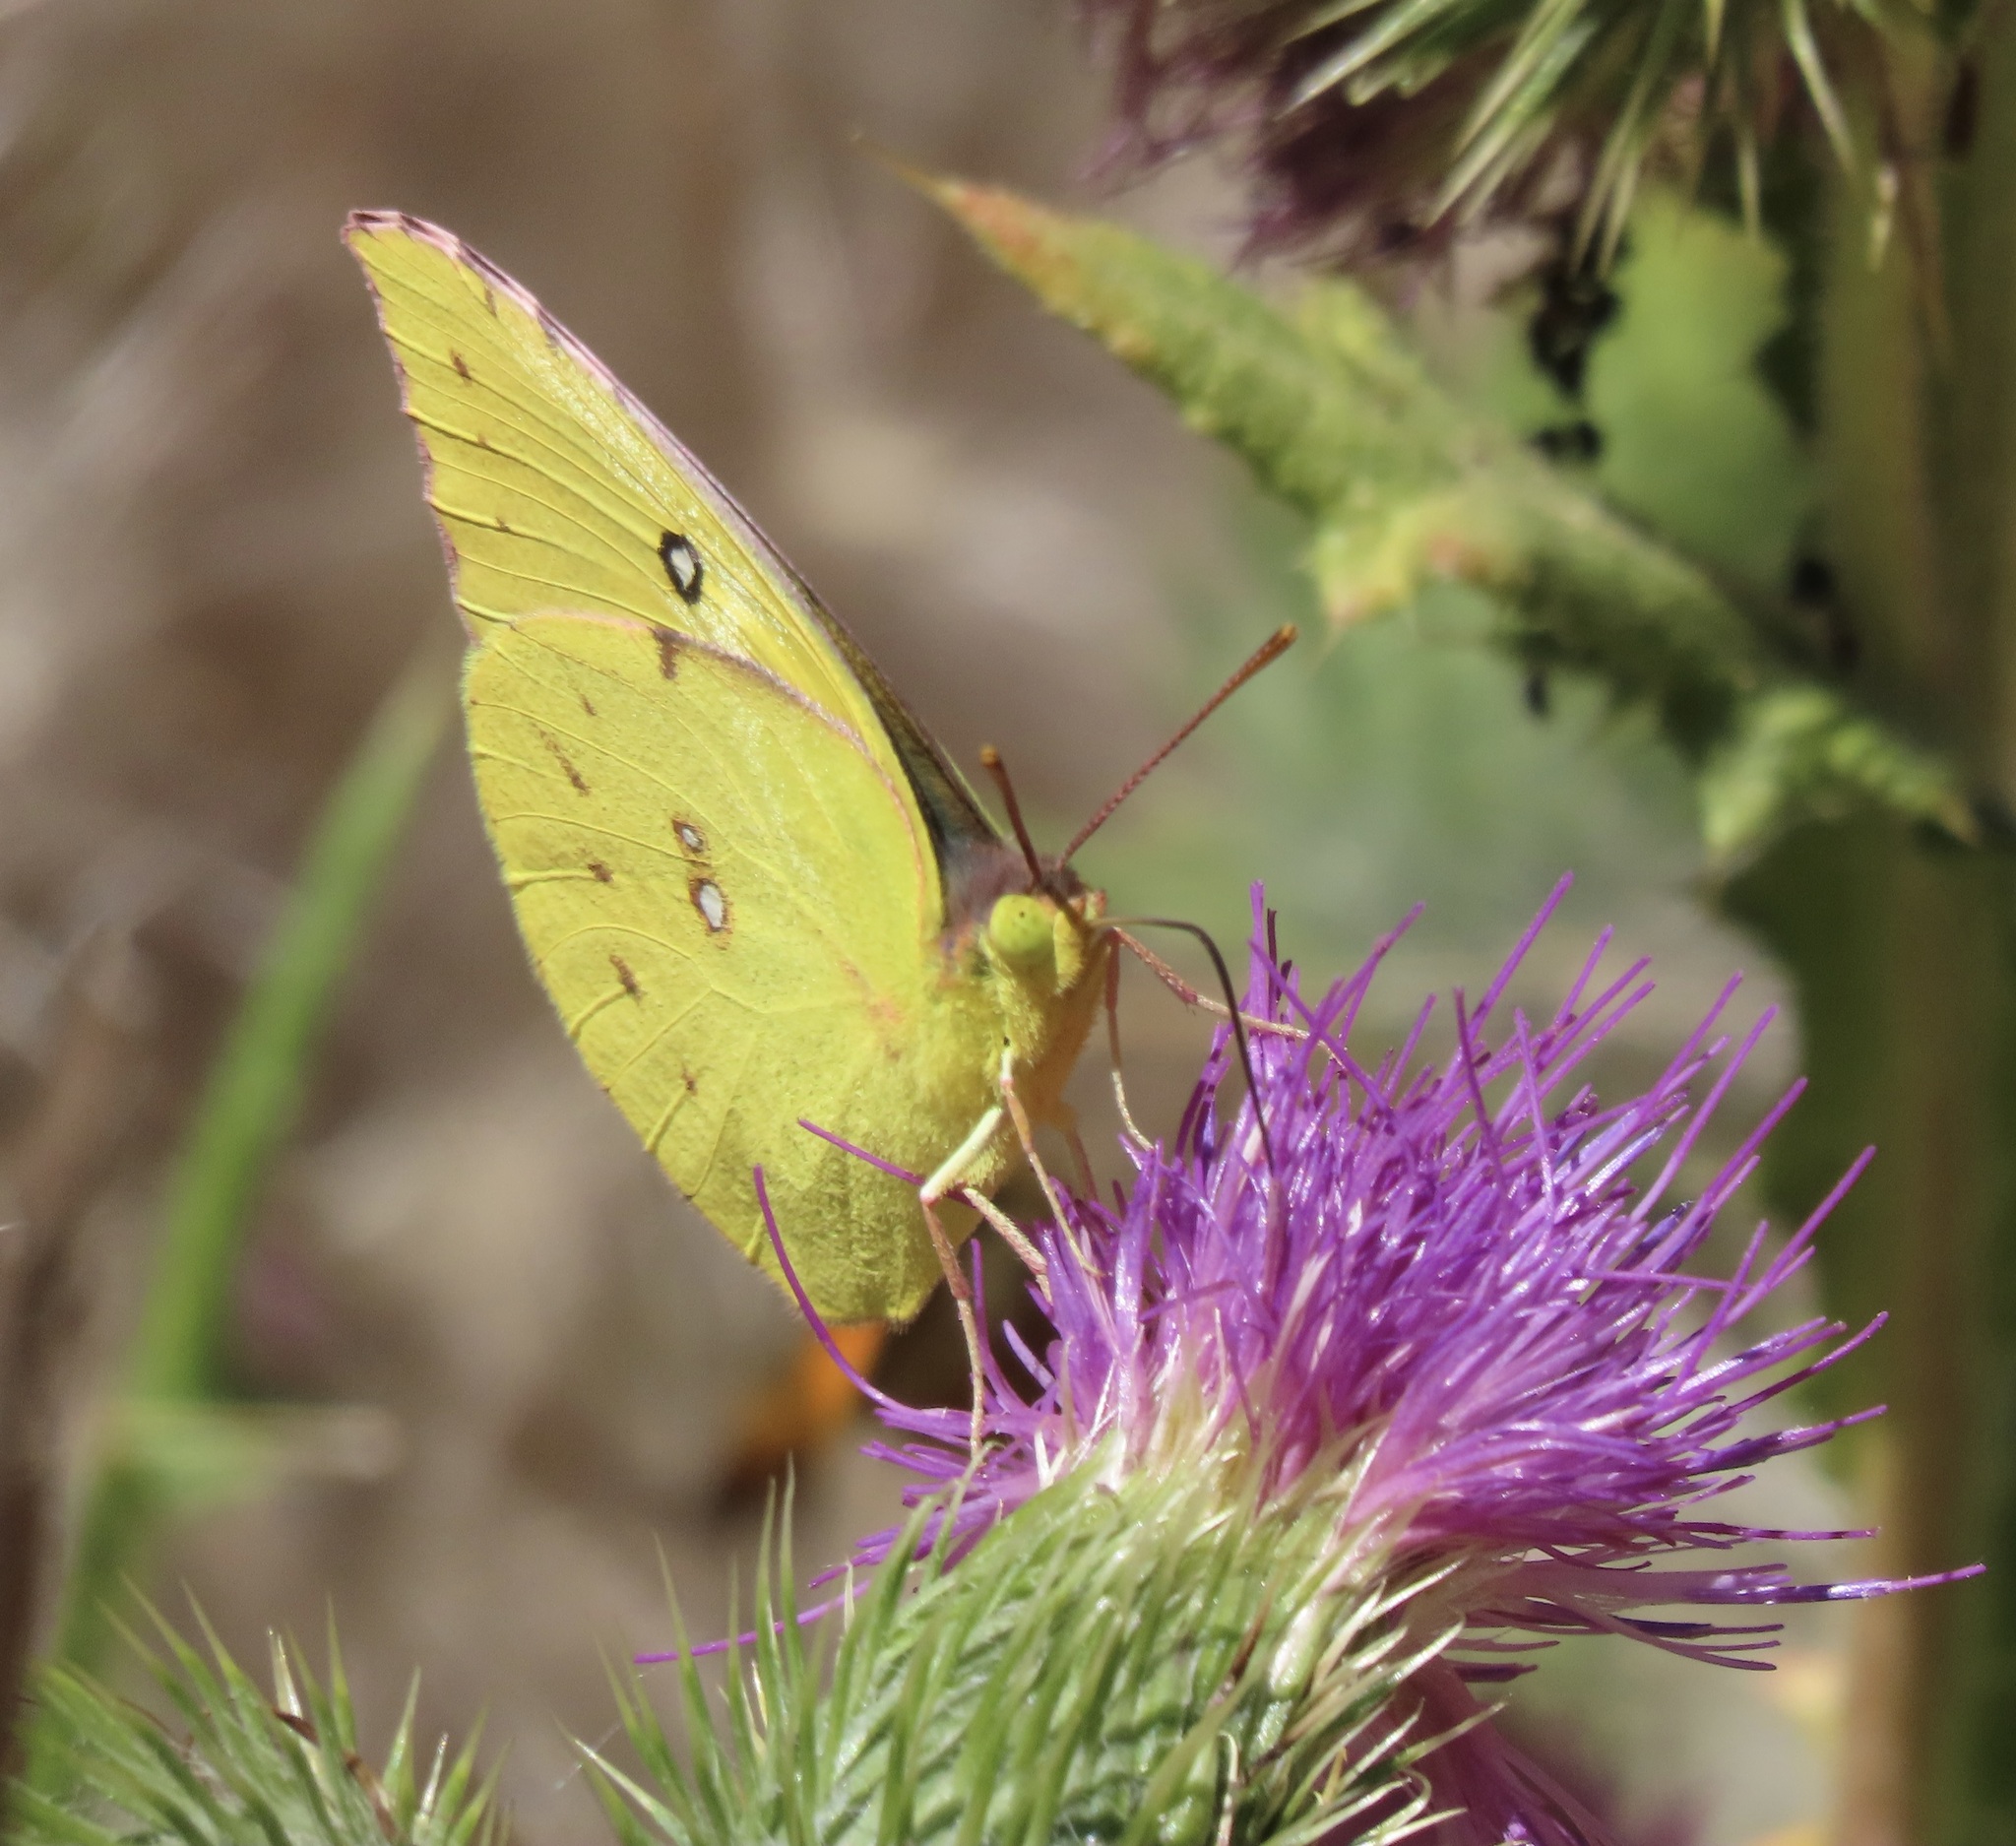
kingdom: Animalia
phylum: Arthropoda
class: Insecta
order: Lepidoptera
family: Pieridae
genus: Zerene
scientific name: Zerene eurydice
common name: California dogface
